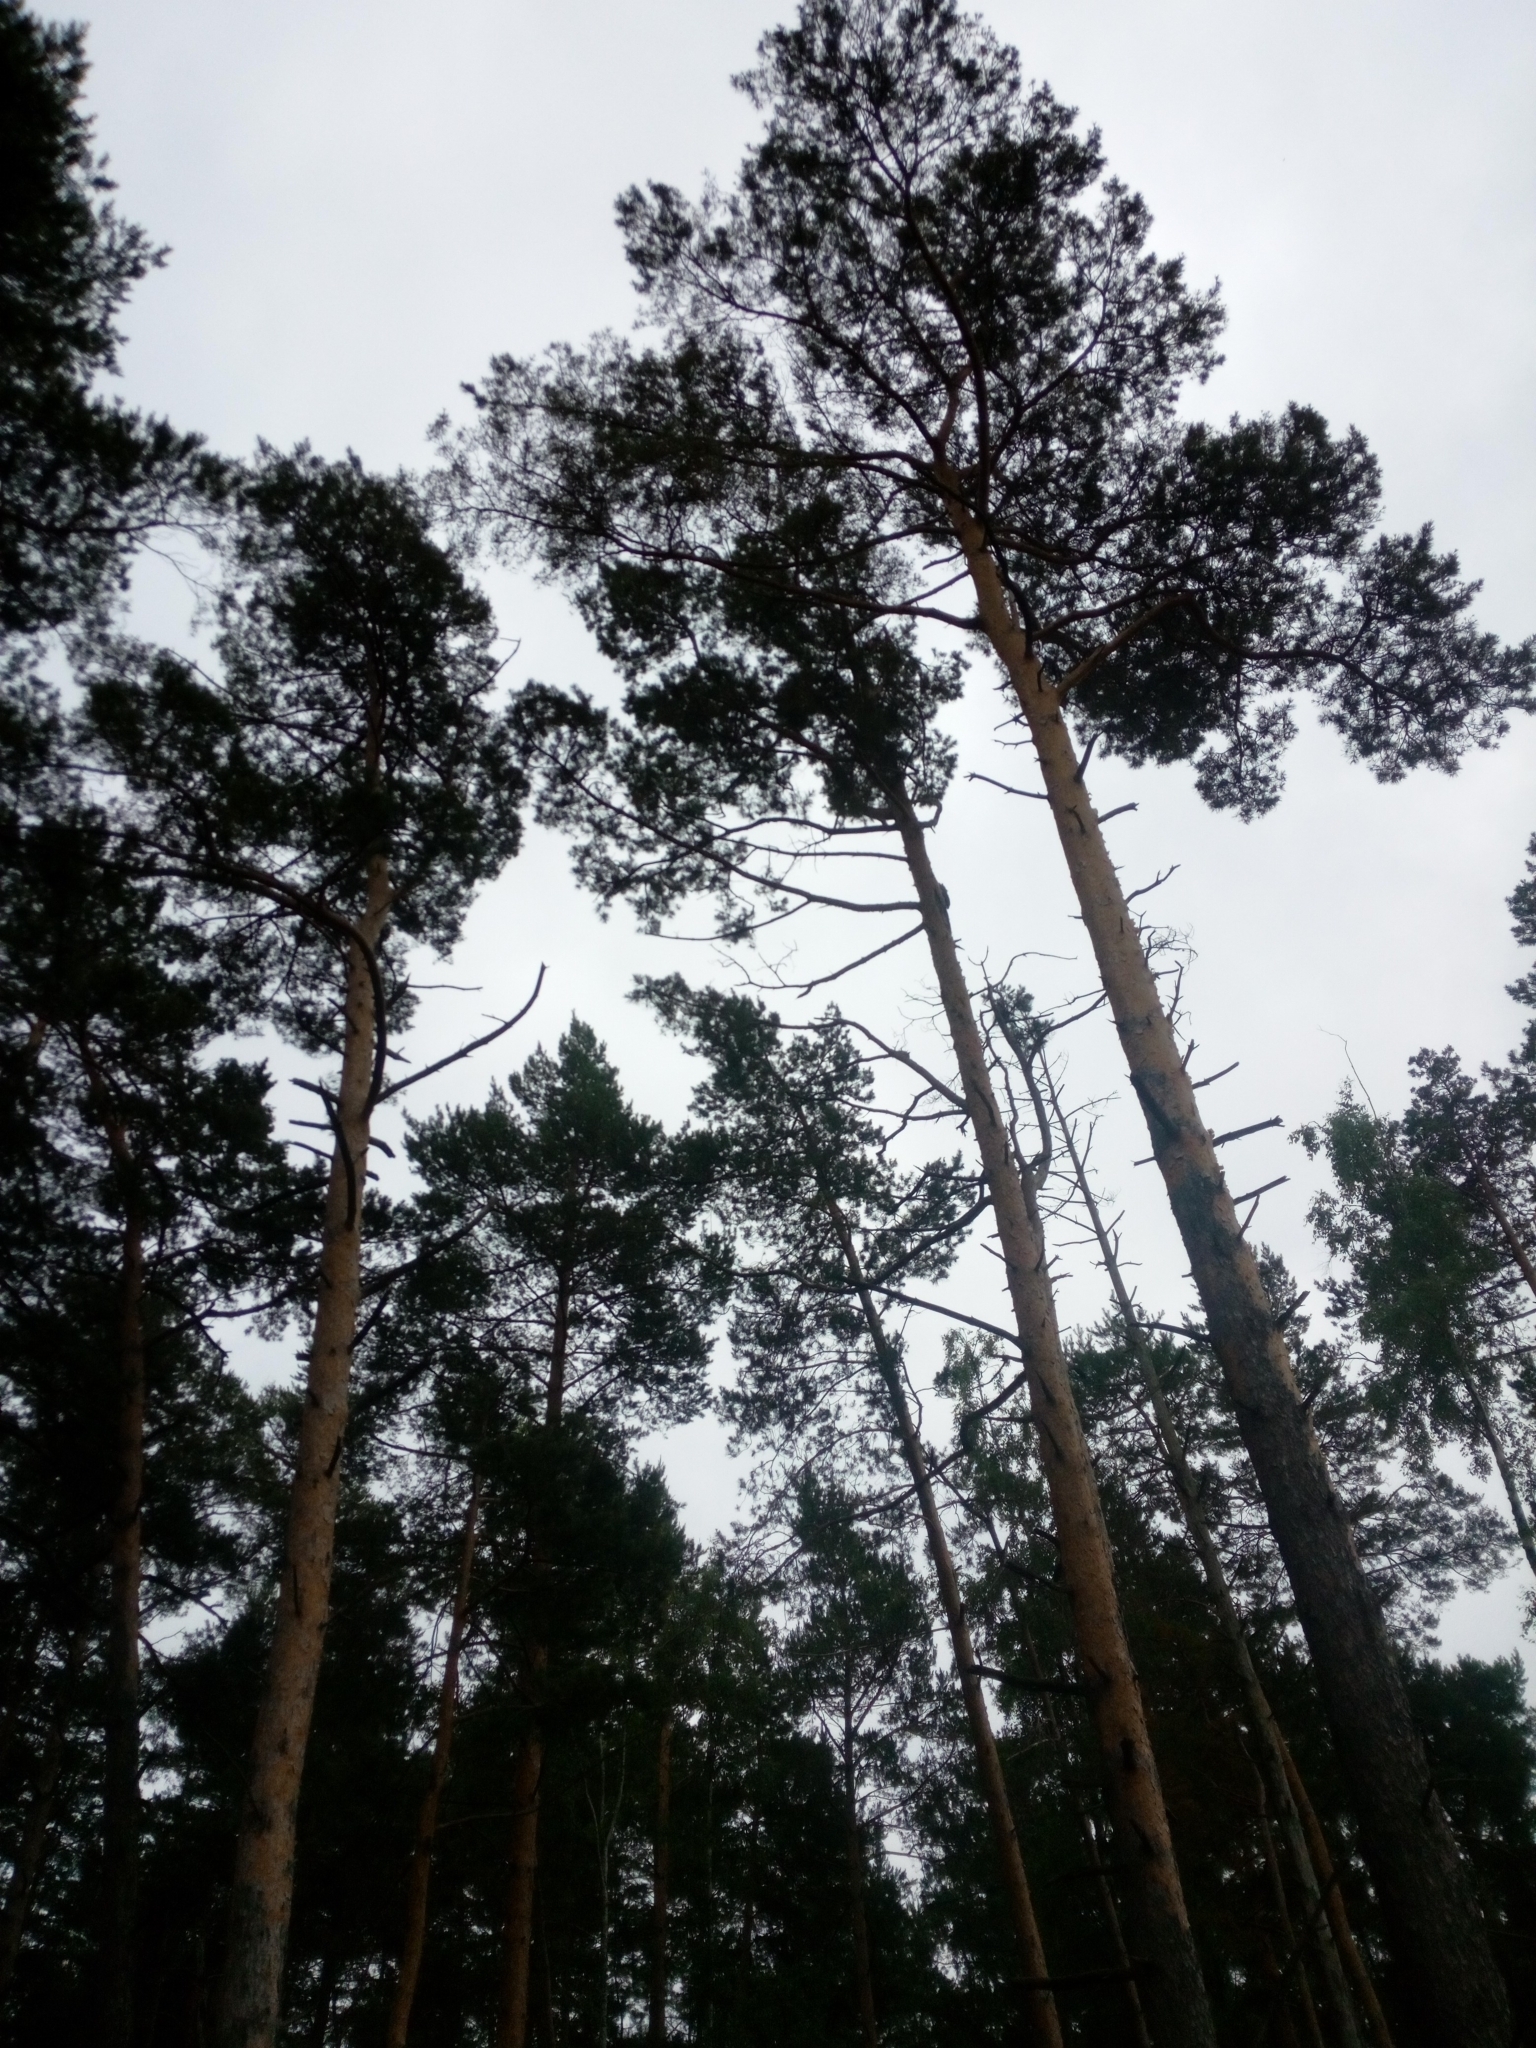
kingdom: Plantae
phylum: Tracheophyta
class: Pinopsida
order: Pinales
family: Pinaceae
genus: Pinus
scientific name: Pinus sylvestris
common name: Scots pine
